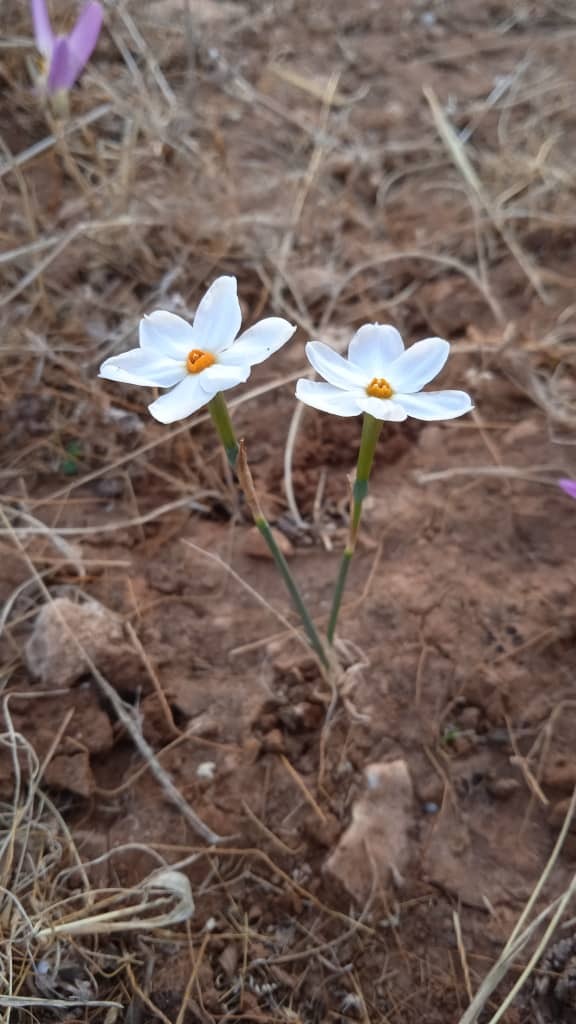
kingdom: Plantae
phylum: Tracheophyta
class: Liliopsida
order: Asparagales
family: Amaryllidaceae
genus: Narcissus
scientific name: Narcissus deficiens
